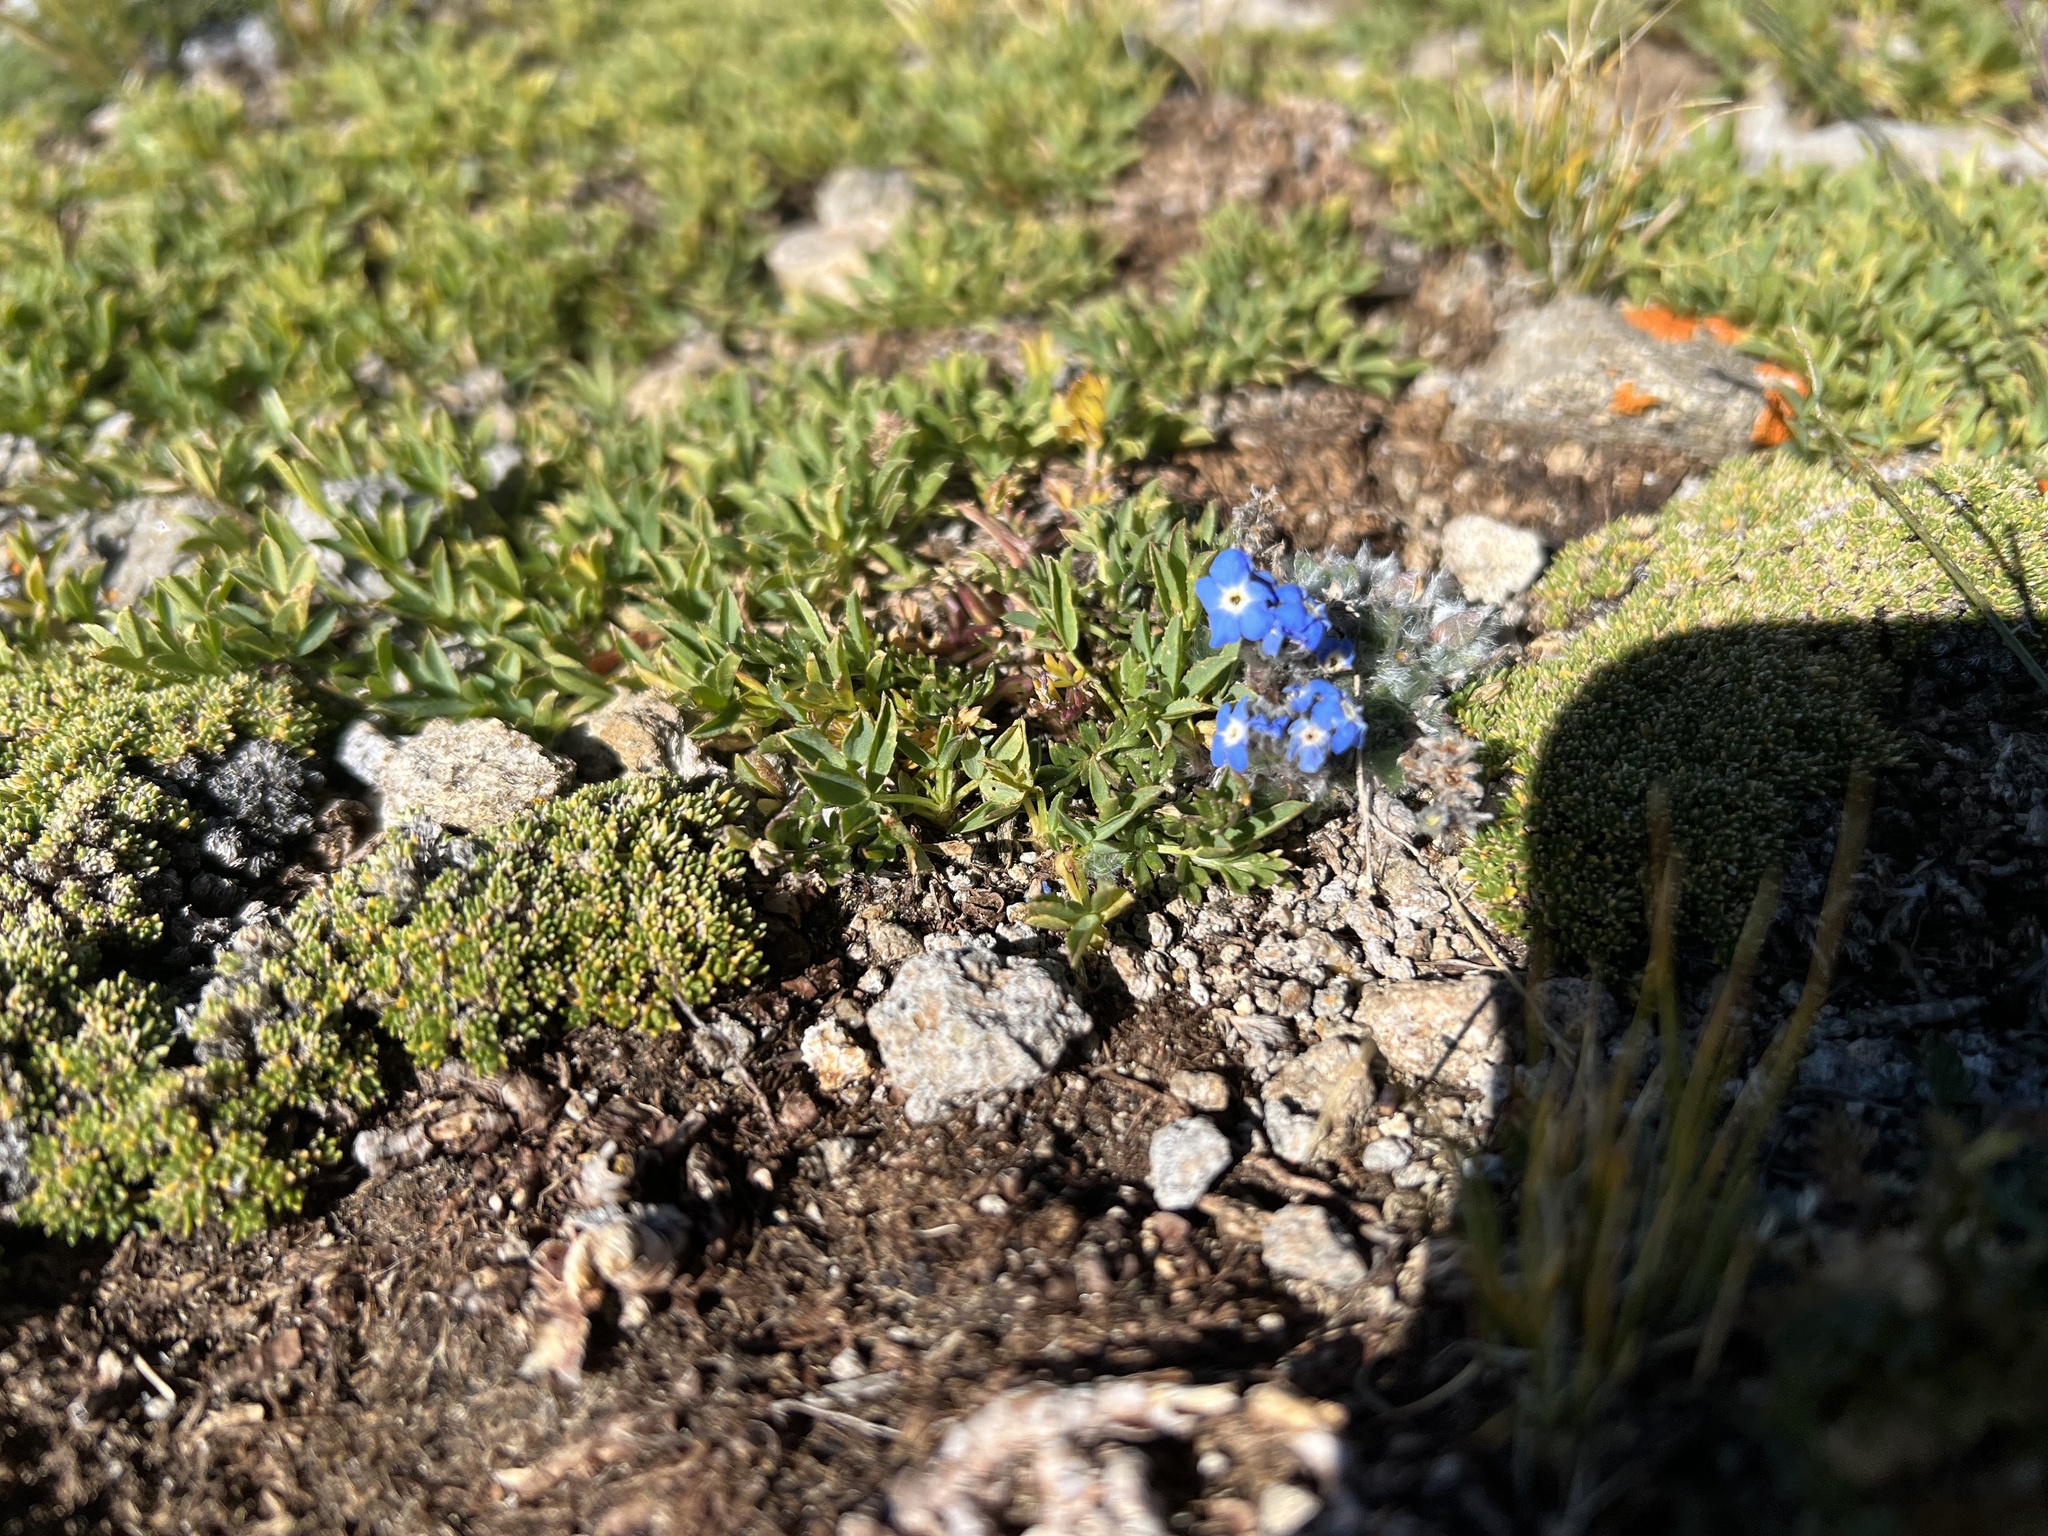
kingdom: Plantae
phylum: Tracheophyta
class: Magnoliopsida
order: Boraginales
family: Boraginaceae
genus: Eritrichium
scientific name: Eritrichium argenteum
